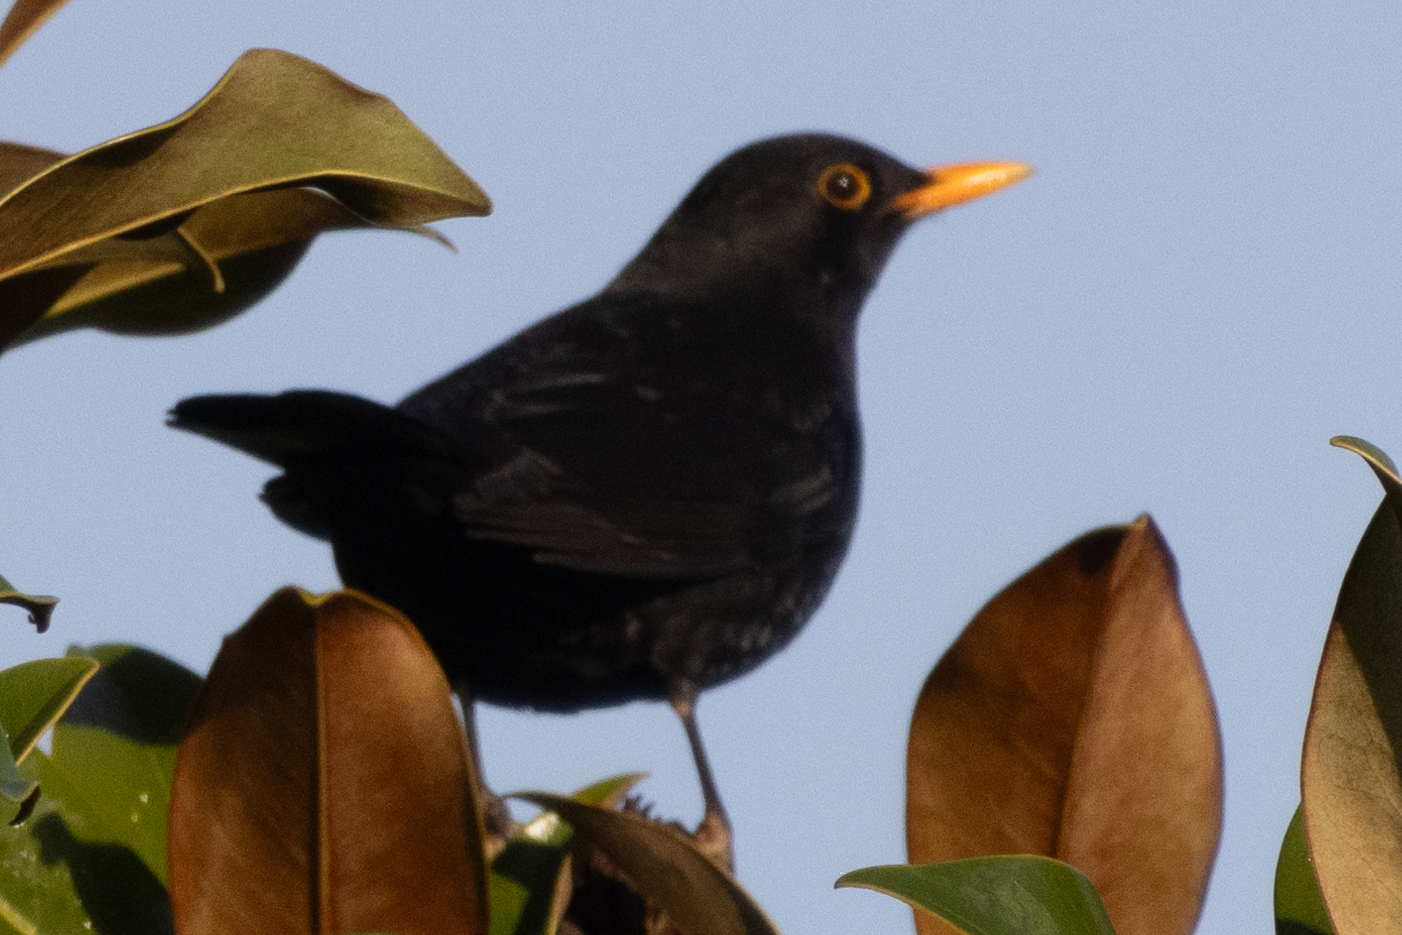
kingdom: Animalia
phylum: Chordata
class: Aves
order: Passeriformes
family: Turdidae
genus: Turdus
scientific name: Turdus merula
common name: Common blackbird
